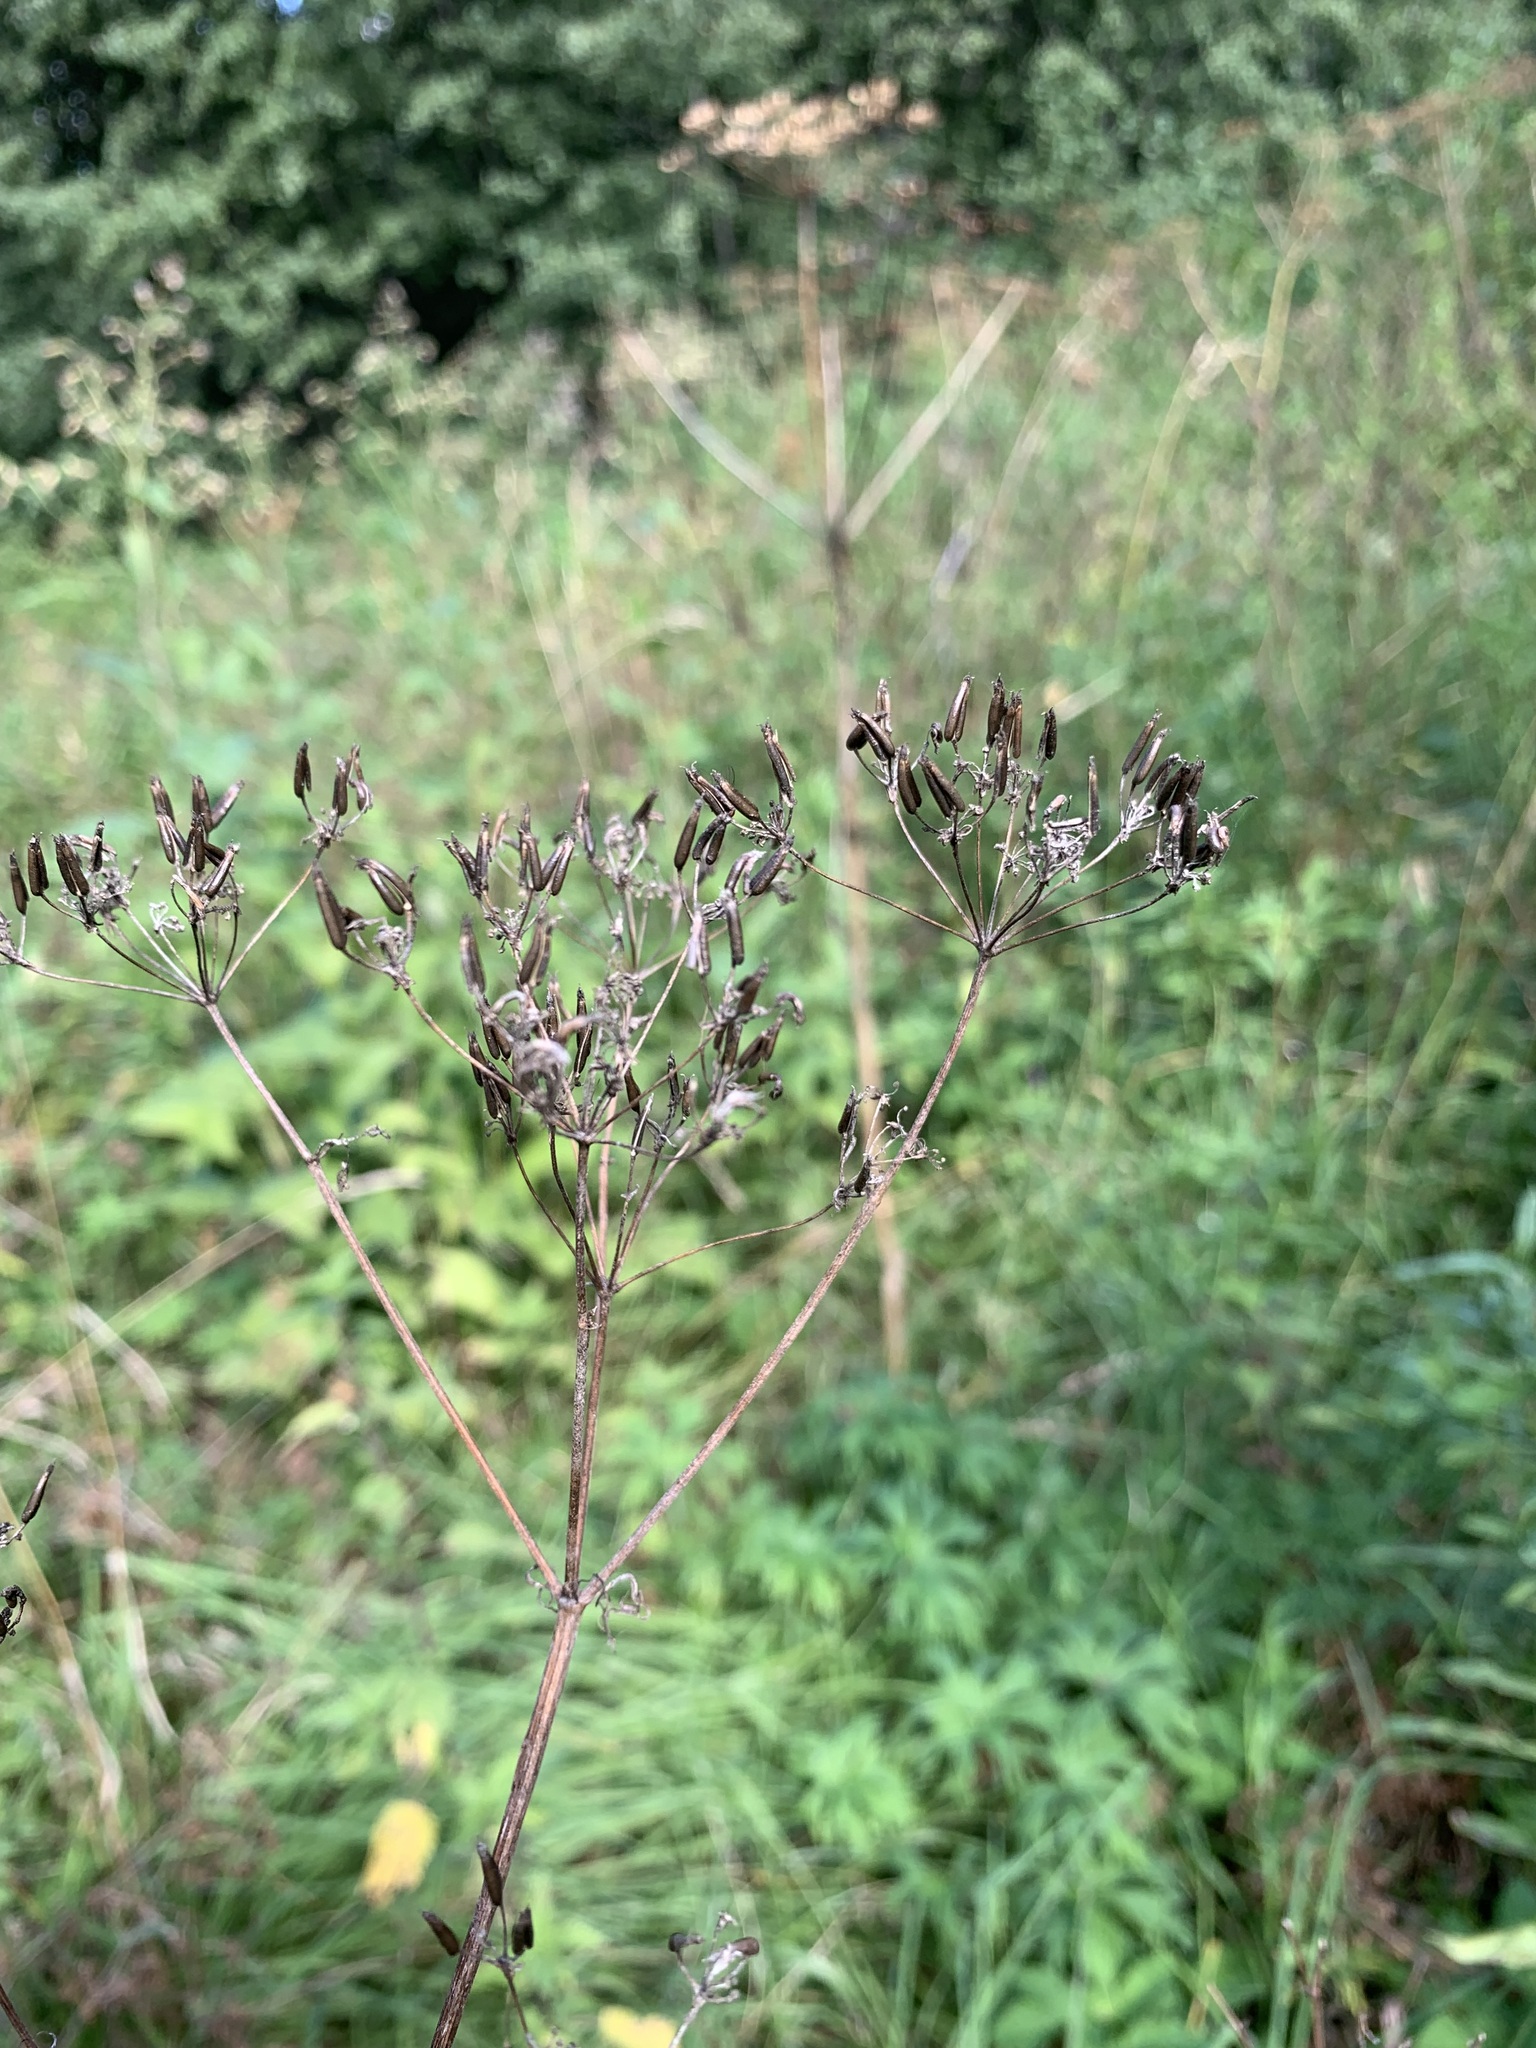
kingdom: Plantae
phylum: Tracheophyta
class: Magnoliopsida
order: Apiales
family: Apiaceae
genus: Conium
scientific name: Conium maculatum
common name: Hemlock
